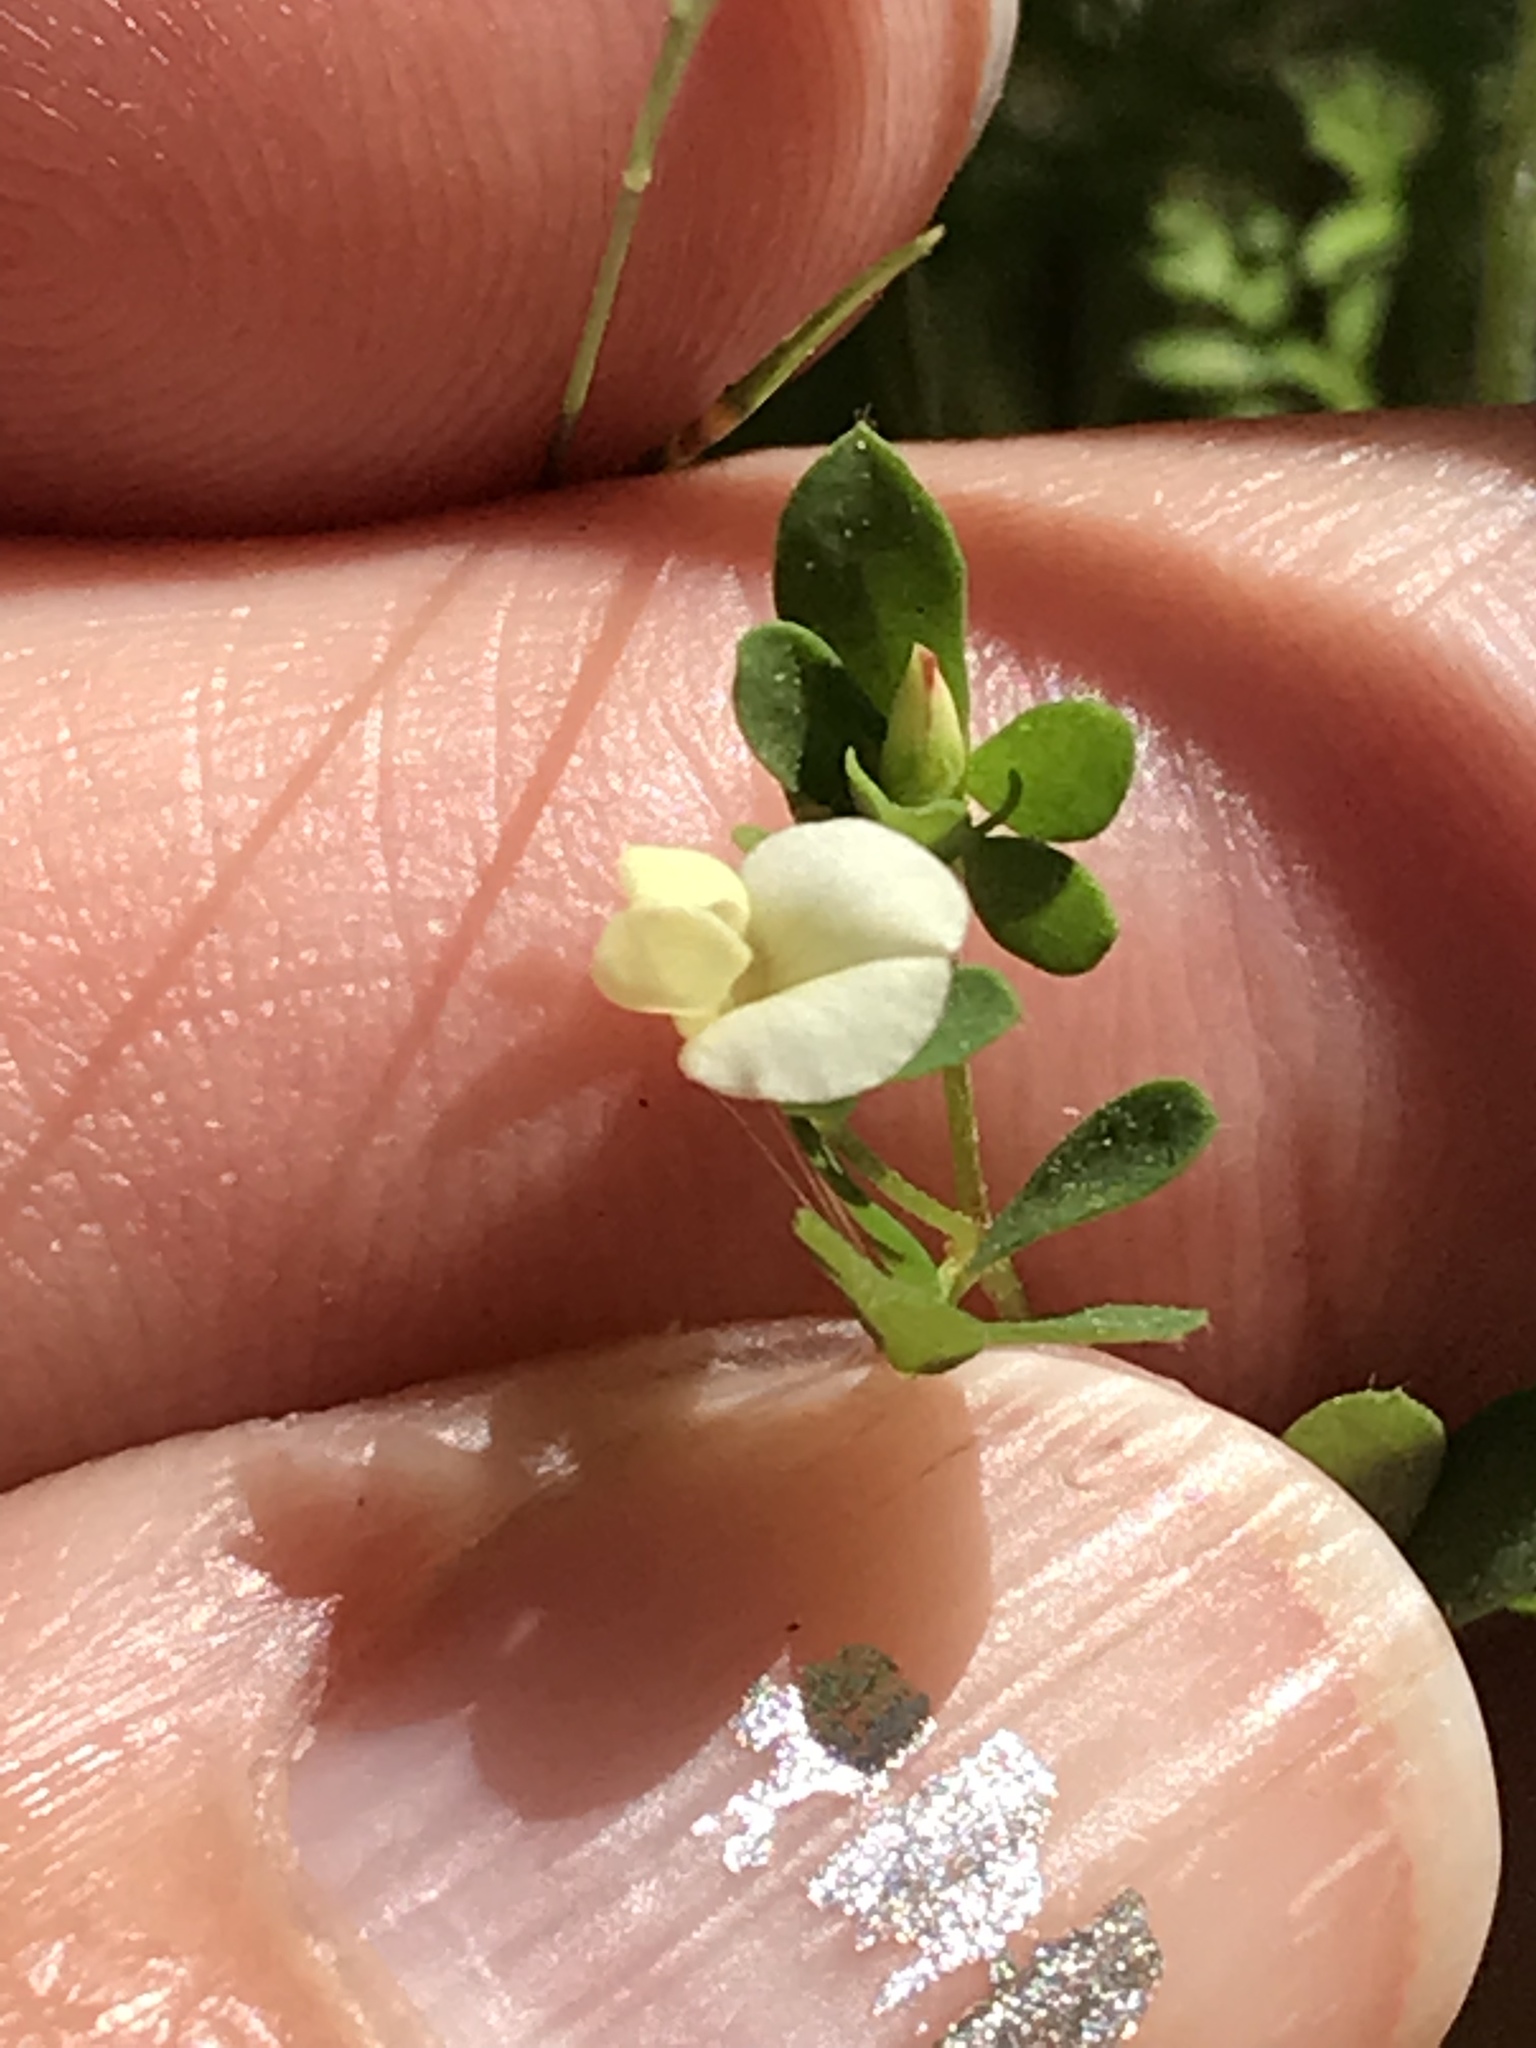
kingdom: Plantae
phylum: Tracheophyta
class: Magnoliopsida
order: Fabales
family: Fabaceae
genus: Acmispon
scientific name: Acmispon parviflorus
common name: Desert deer-vetch
